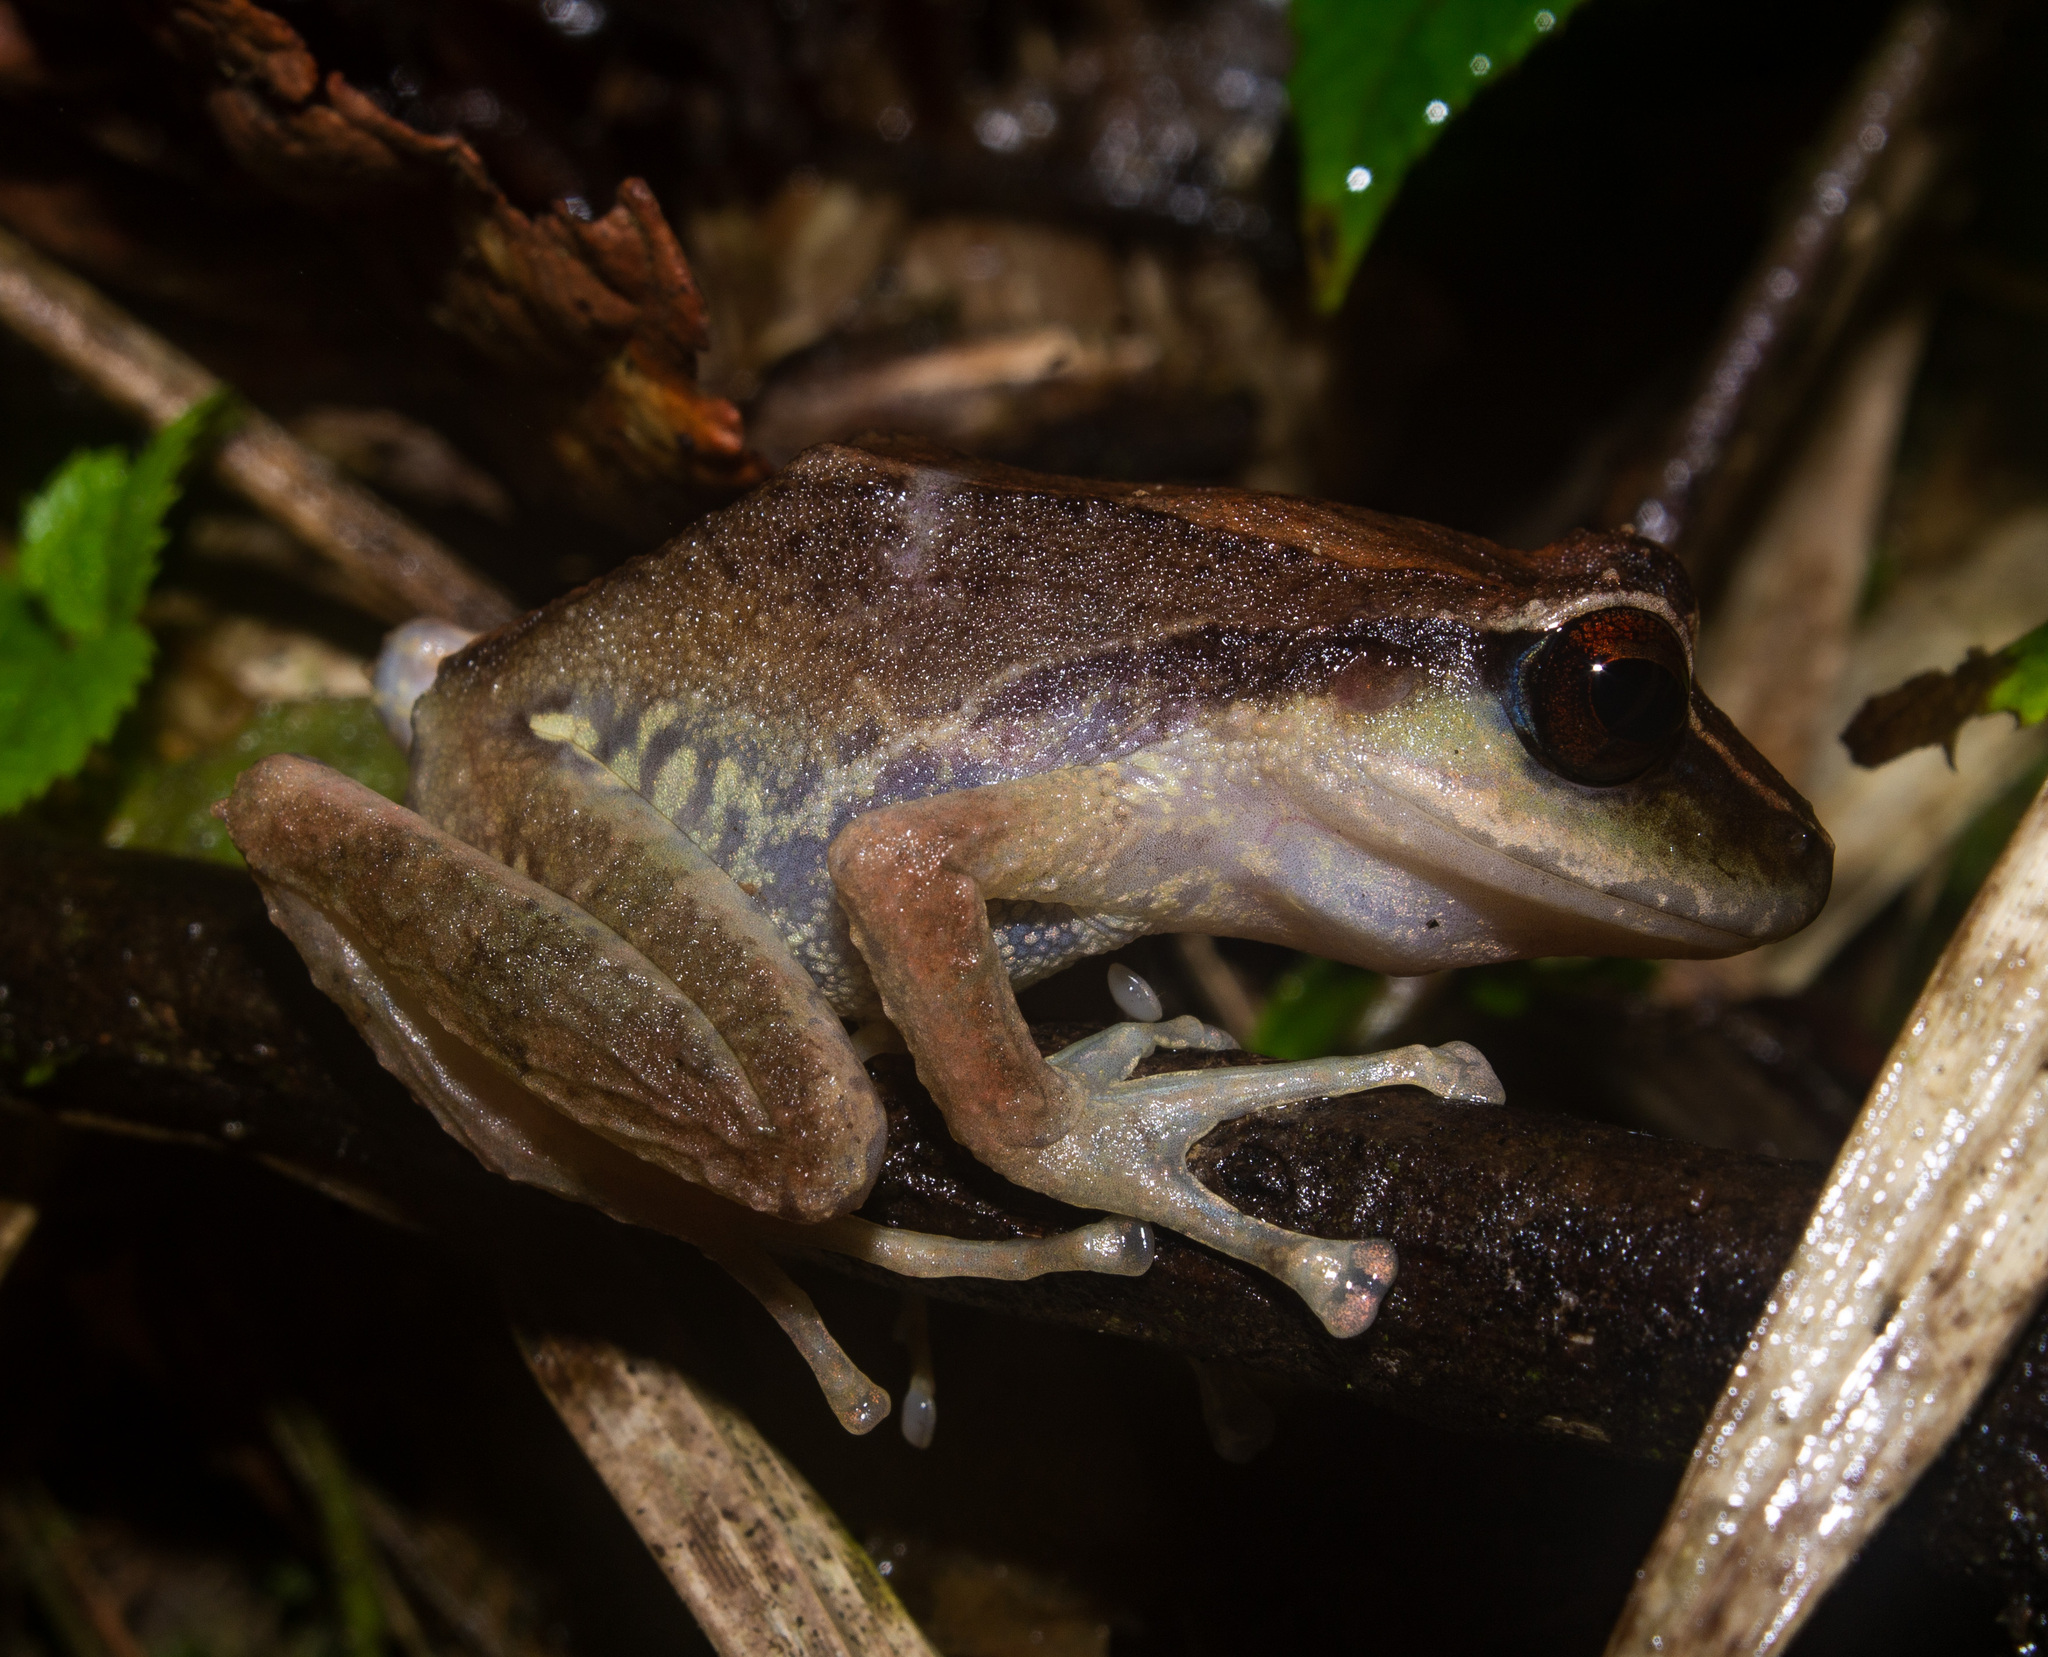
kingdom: Animalia
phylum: Chordata
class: Amphibia
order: Anura
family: Craugastoridae
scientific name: Craugastoridae
